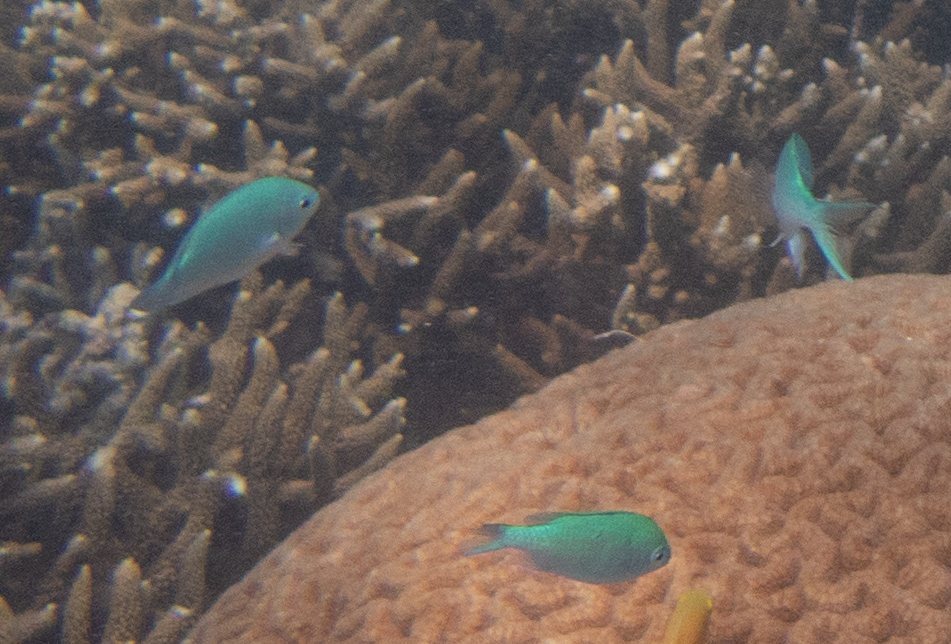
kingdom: Animalia
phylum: Chordata
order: Perciformes
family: Pomacentridae
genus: Chromis
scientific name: Chromis viridis
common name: Blue-green chromis
